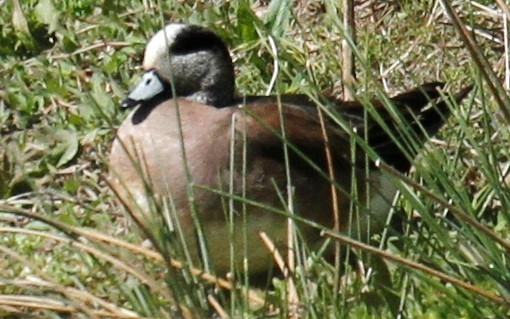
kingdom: Animalia
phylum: Chordata
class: Aves
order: Anseriformes
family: Anatidae
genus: Mareca
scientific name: Mareca americana
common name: American wigeon
